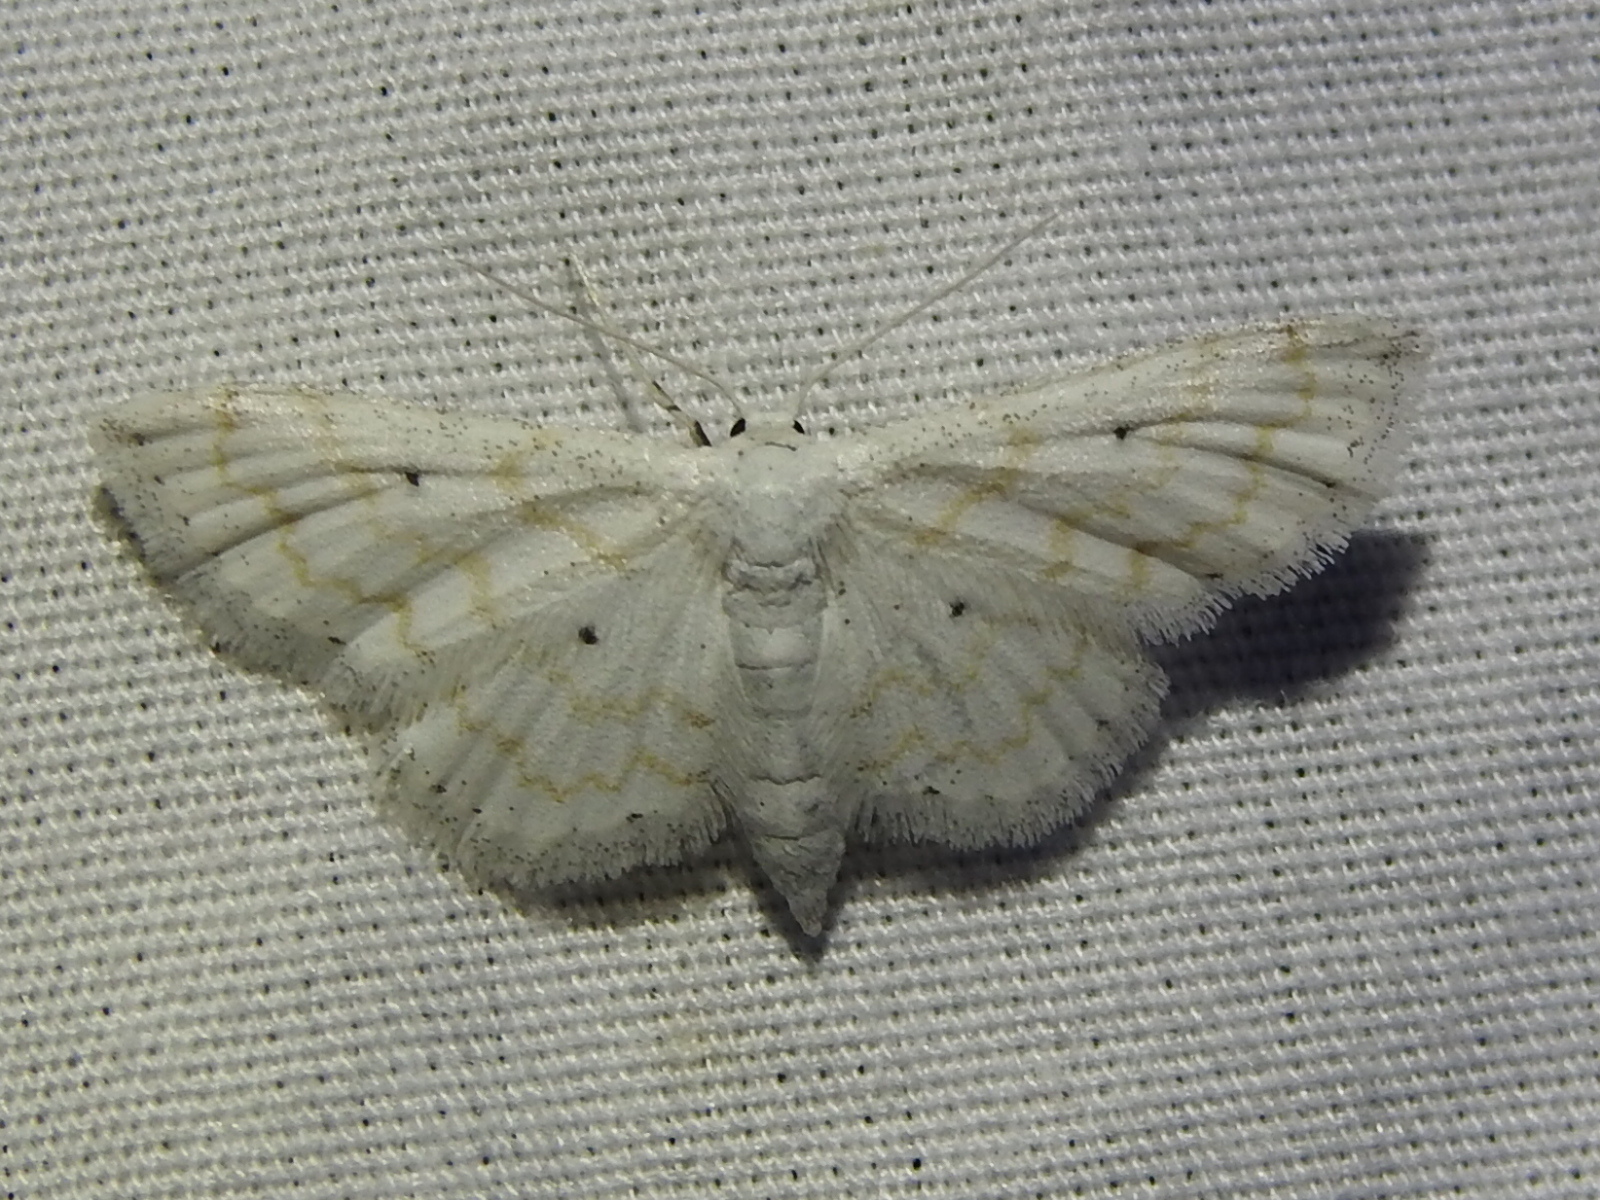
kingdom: Animalia
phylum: Arthropoda
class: Insecta
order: Lepidoptera
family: Geometridae
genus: Lobocleta
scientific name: Lobocleta peralbata
